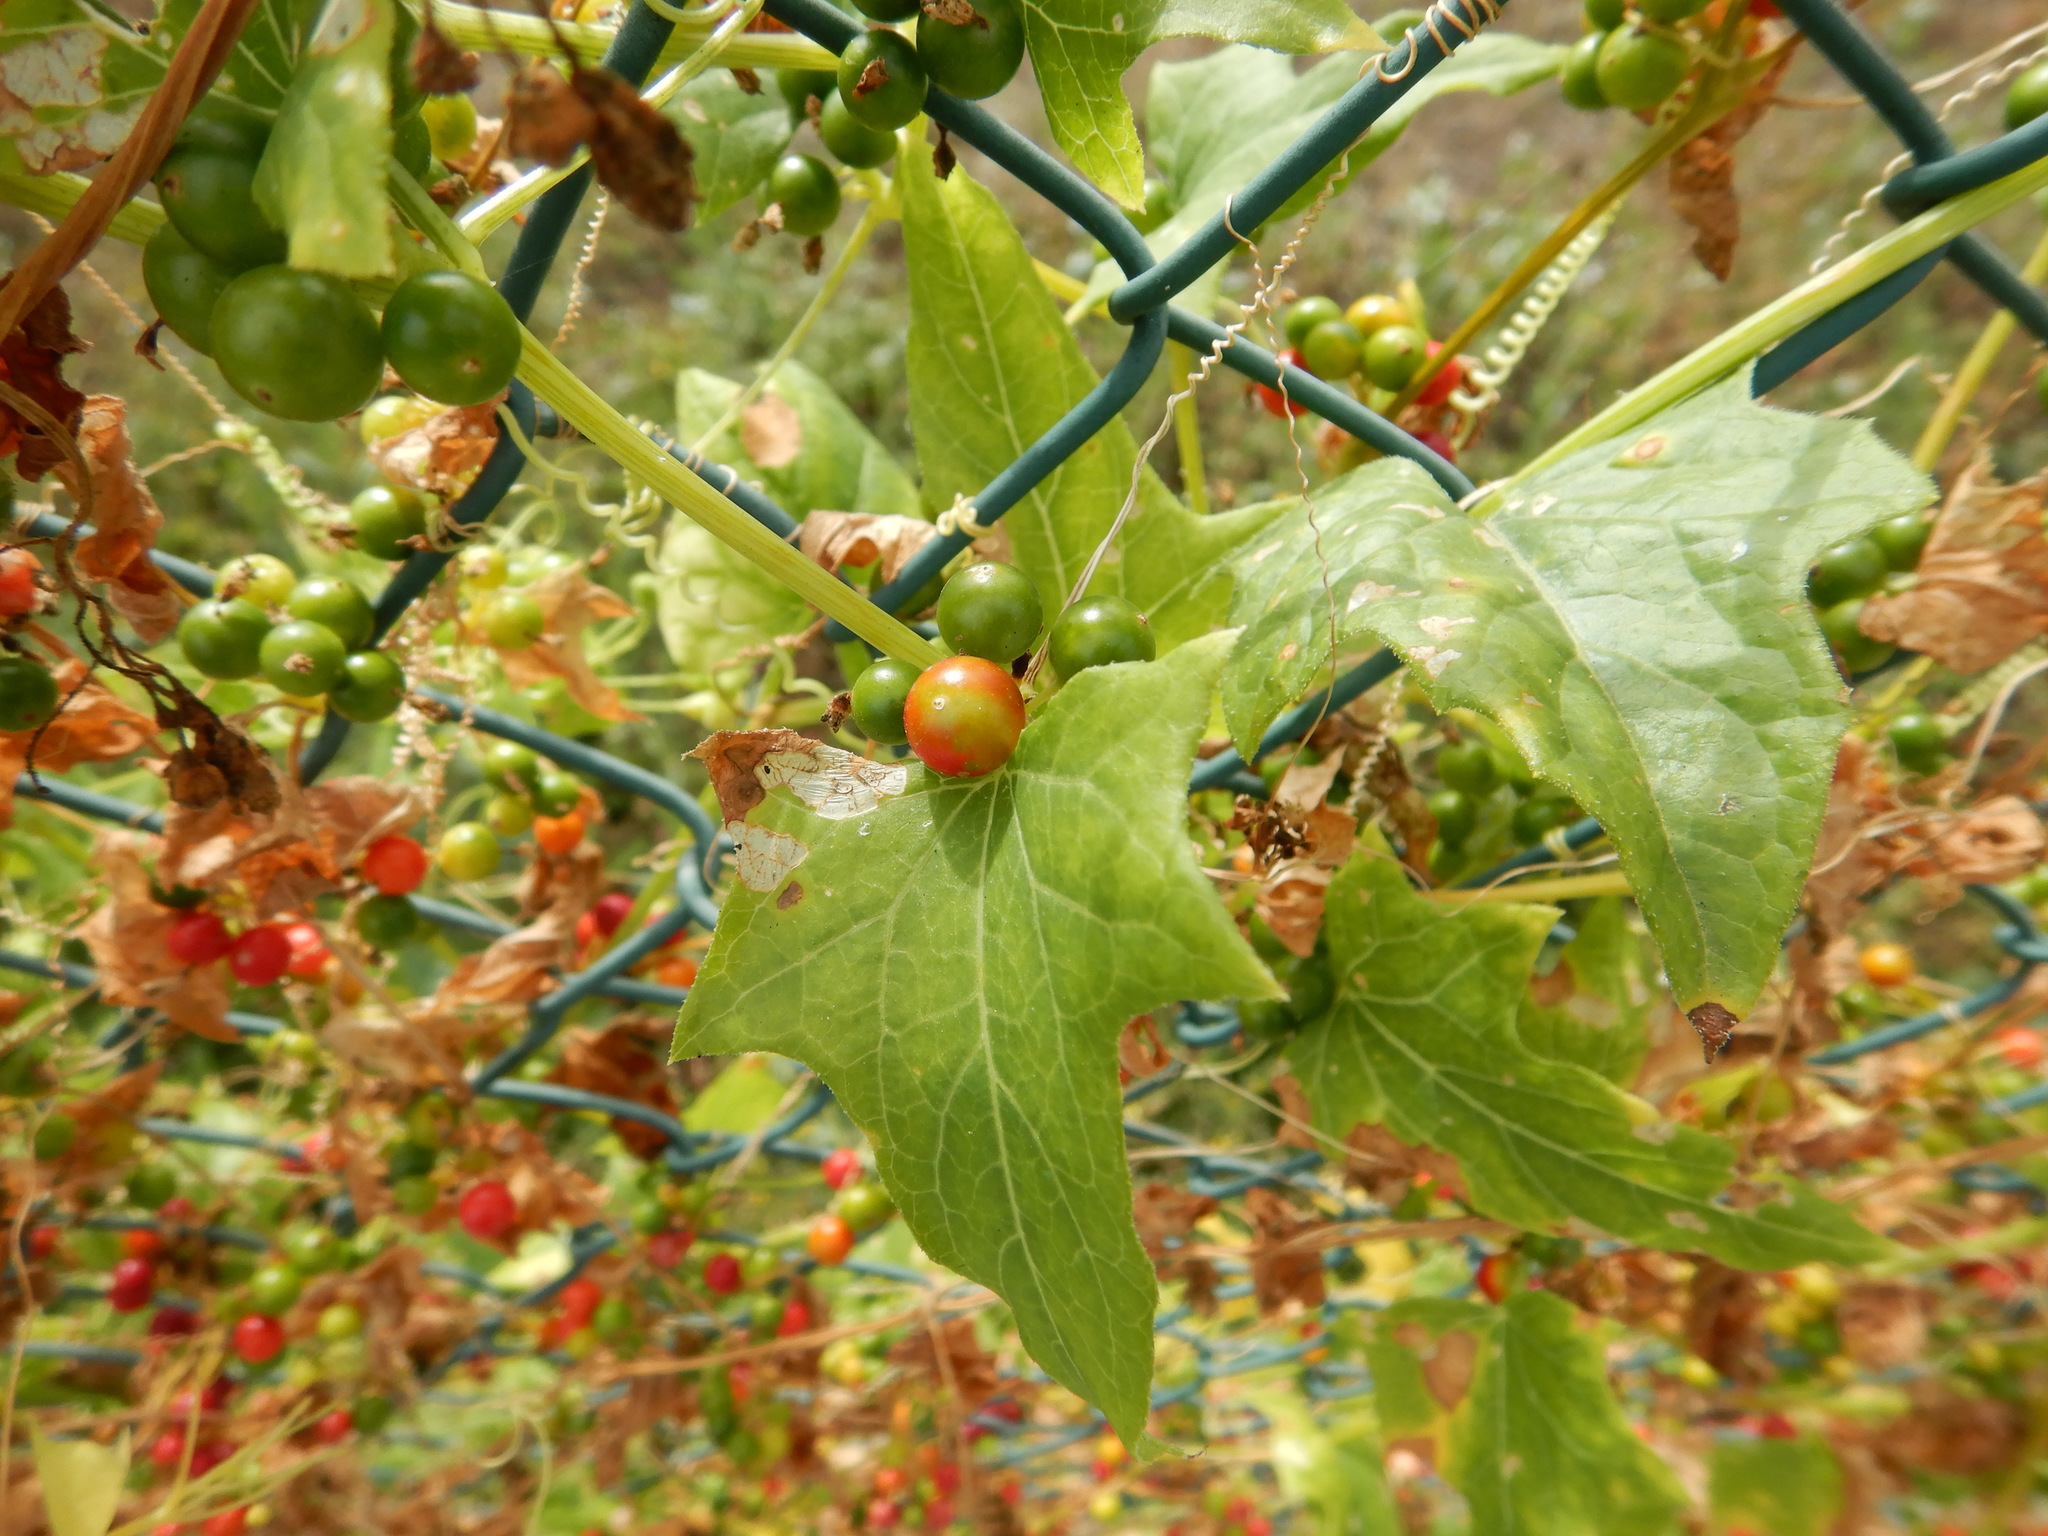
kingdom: Plantae
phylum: Tracheophyta
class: Magnoliopsida
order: Cucurbitales
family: Cucurbitaceae
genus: Bryonia
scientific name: Bryonia dioica
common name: White bryony
